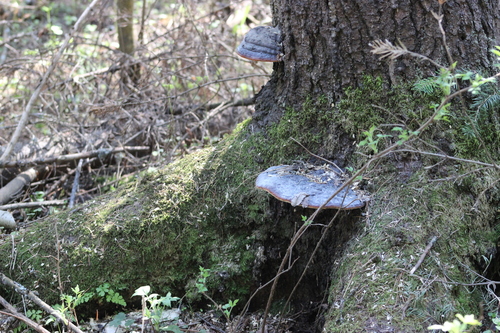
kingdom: Fungi
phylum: Basidiomycota
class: Agaricomycetes
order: Polyporales
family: Fomitopsidaceae
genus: Fomitopsis
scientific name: Fomitopsis pinicola
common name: Red-belted bracket
